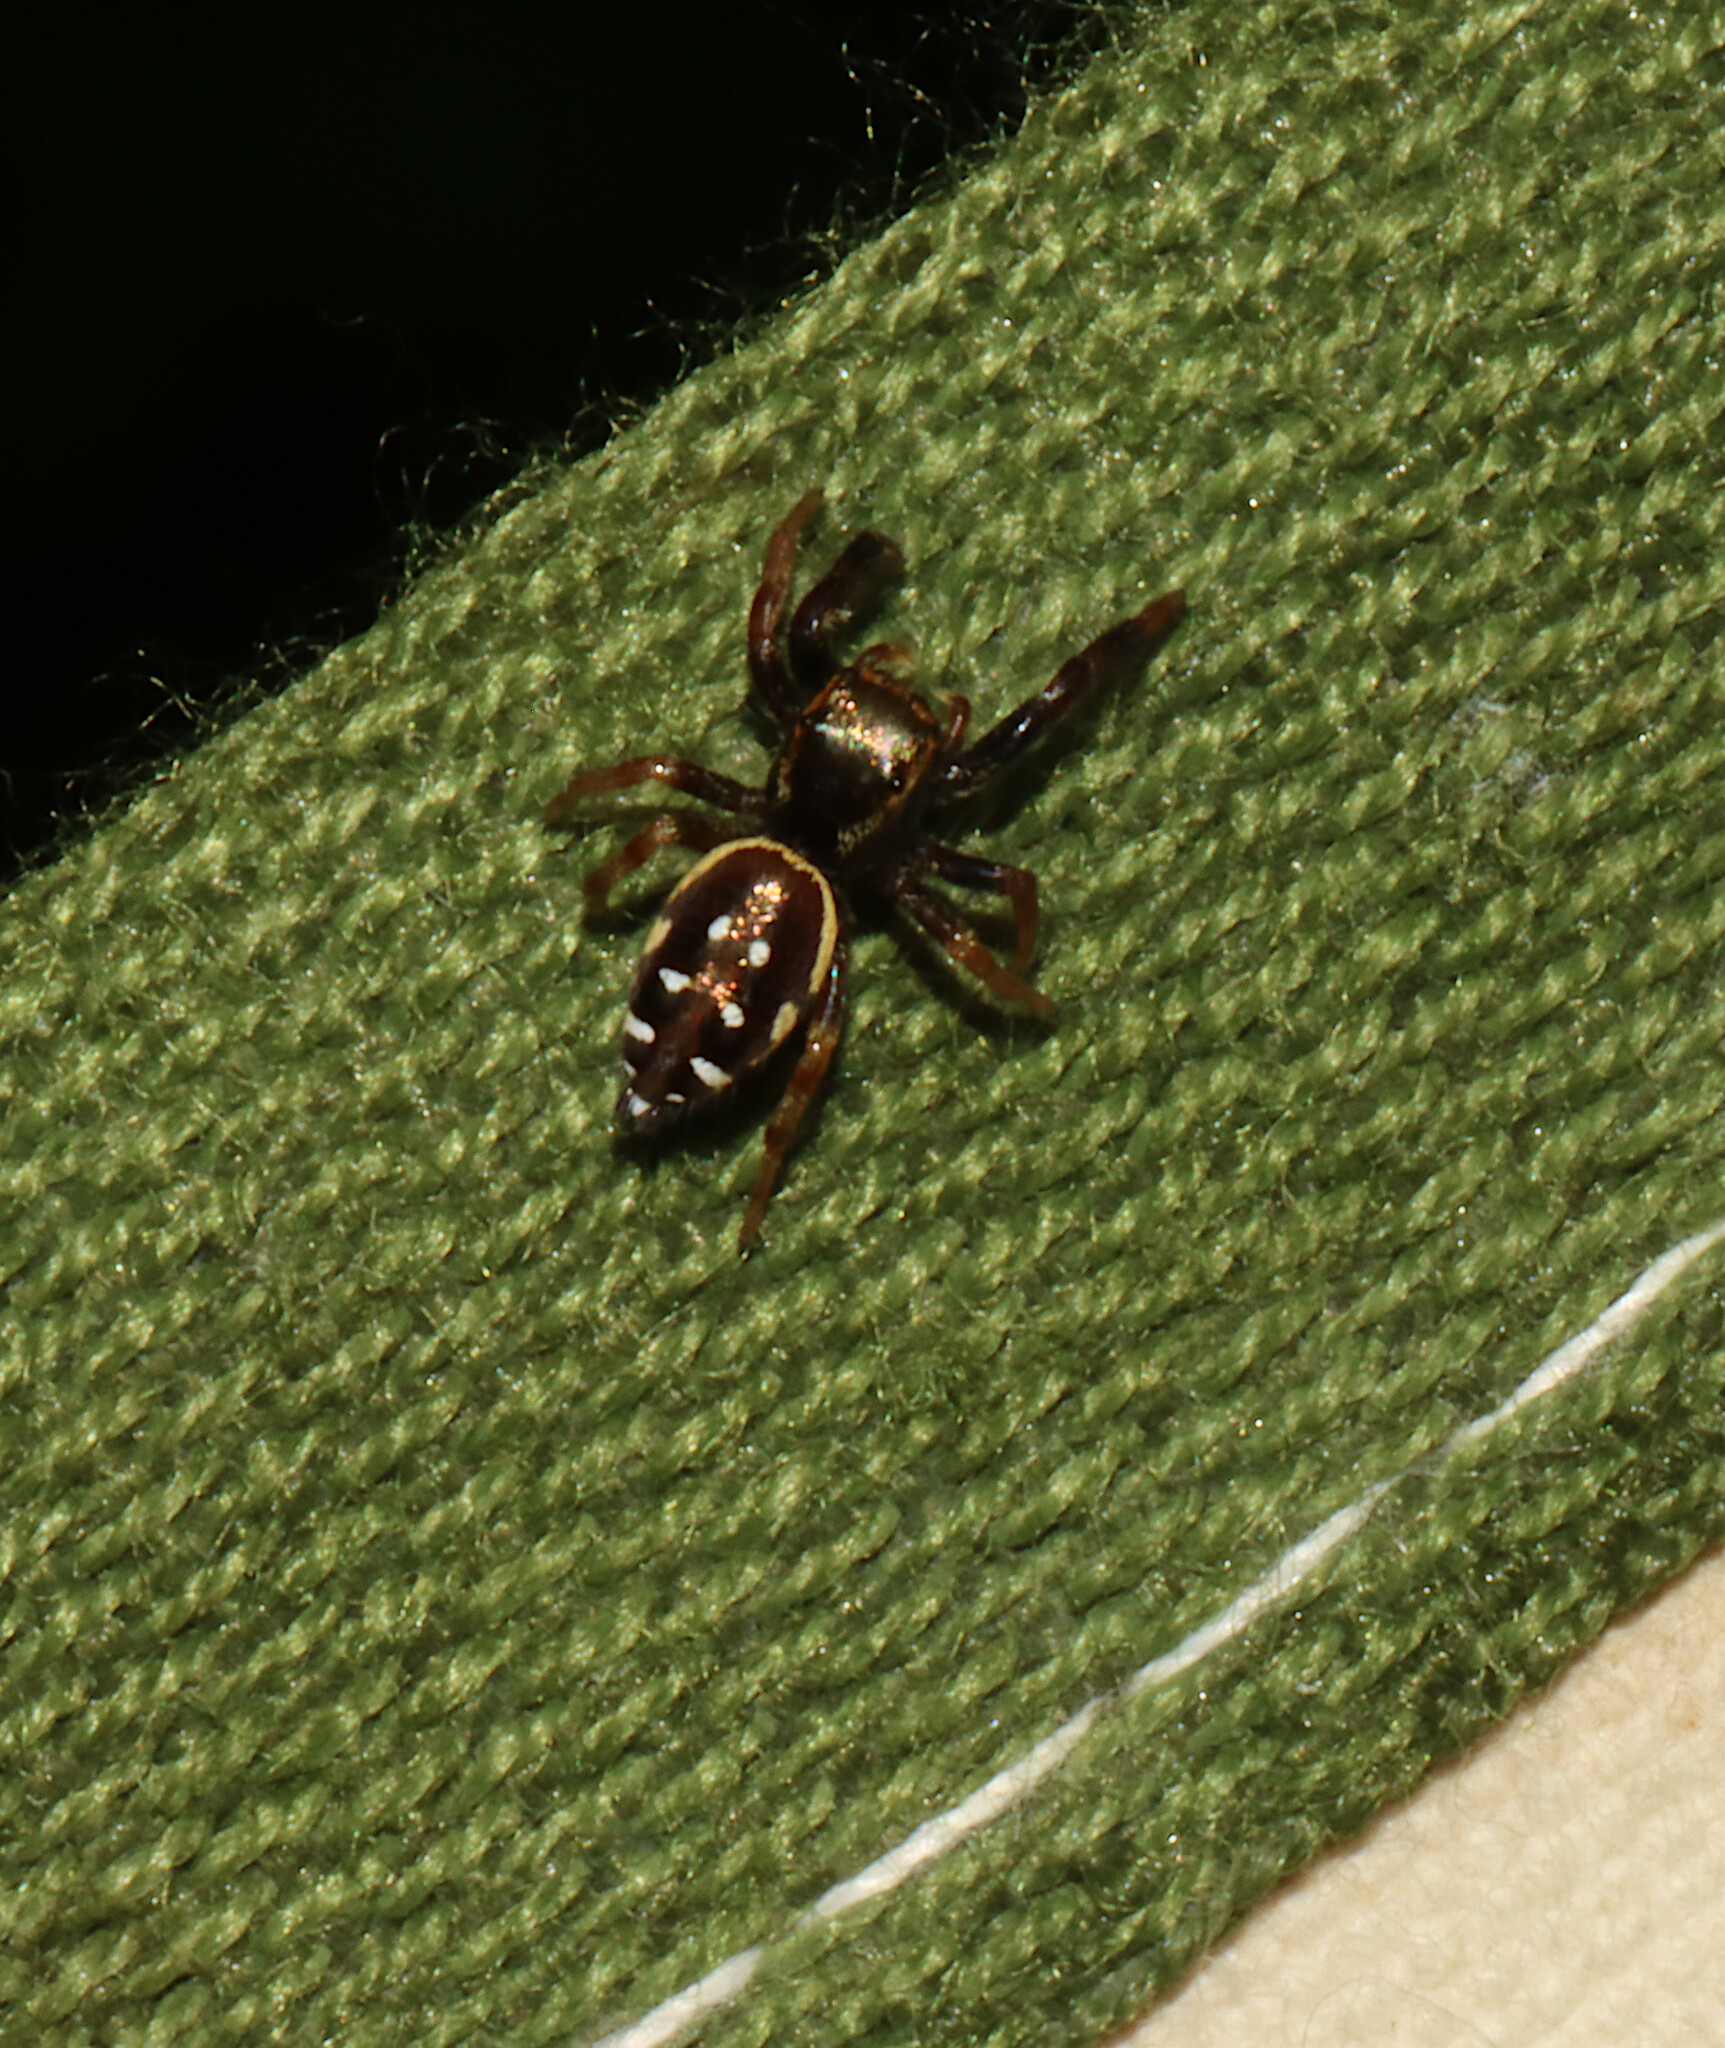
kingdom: Animalia
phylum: Arthropoda
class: Arachnida
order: Araneae
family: Salticidae
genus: Paraphidippus
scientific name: Paraphidippus aurantius
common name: Jumping spiders
